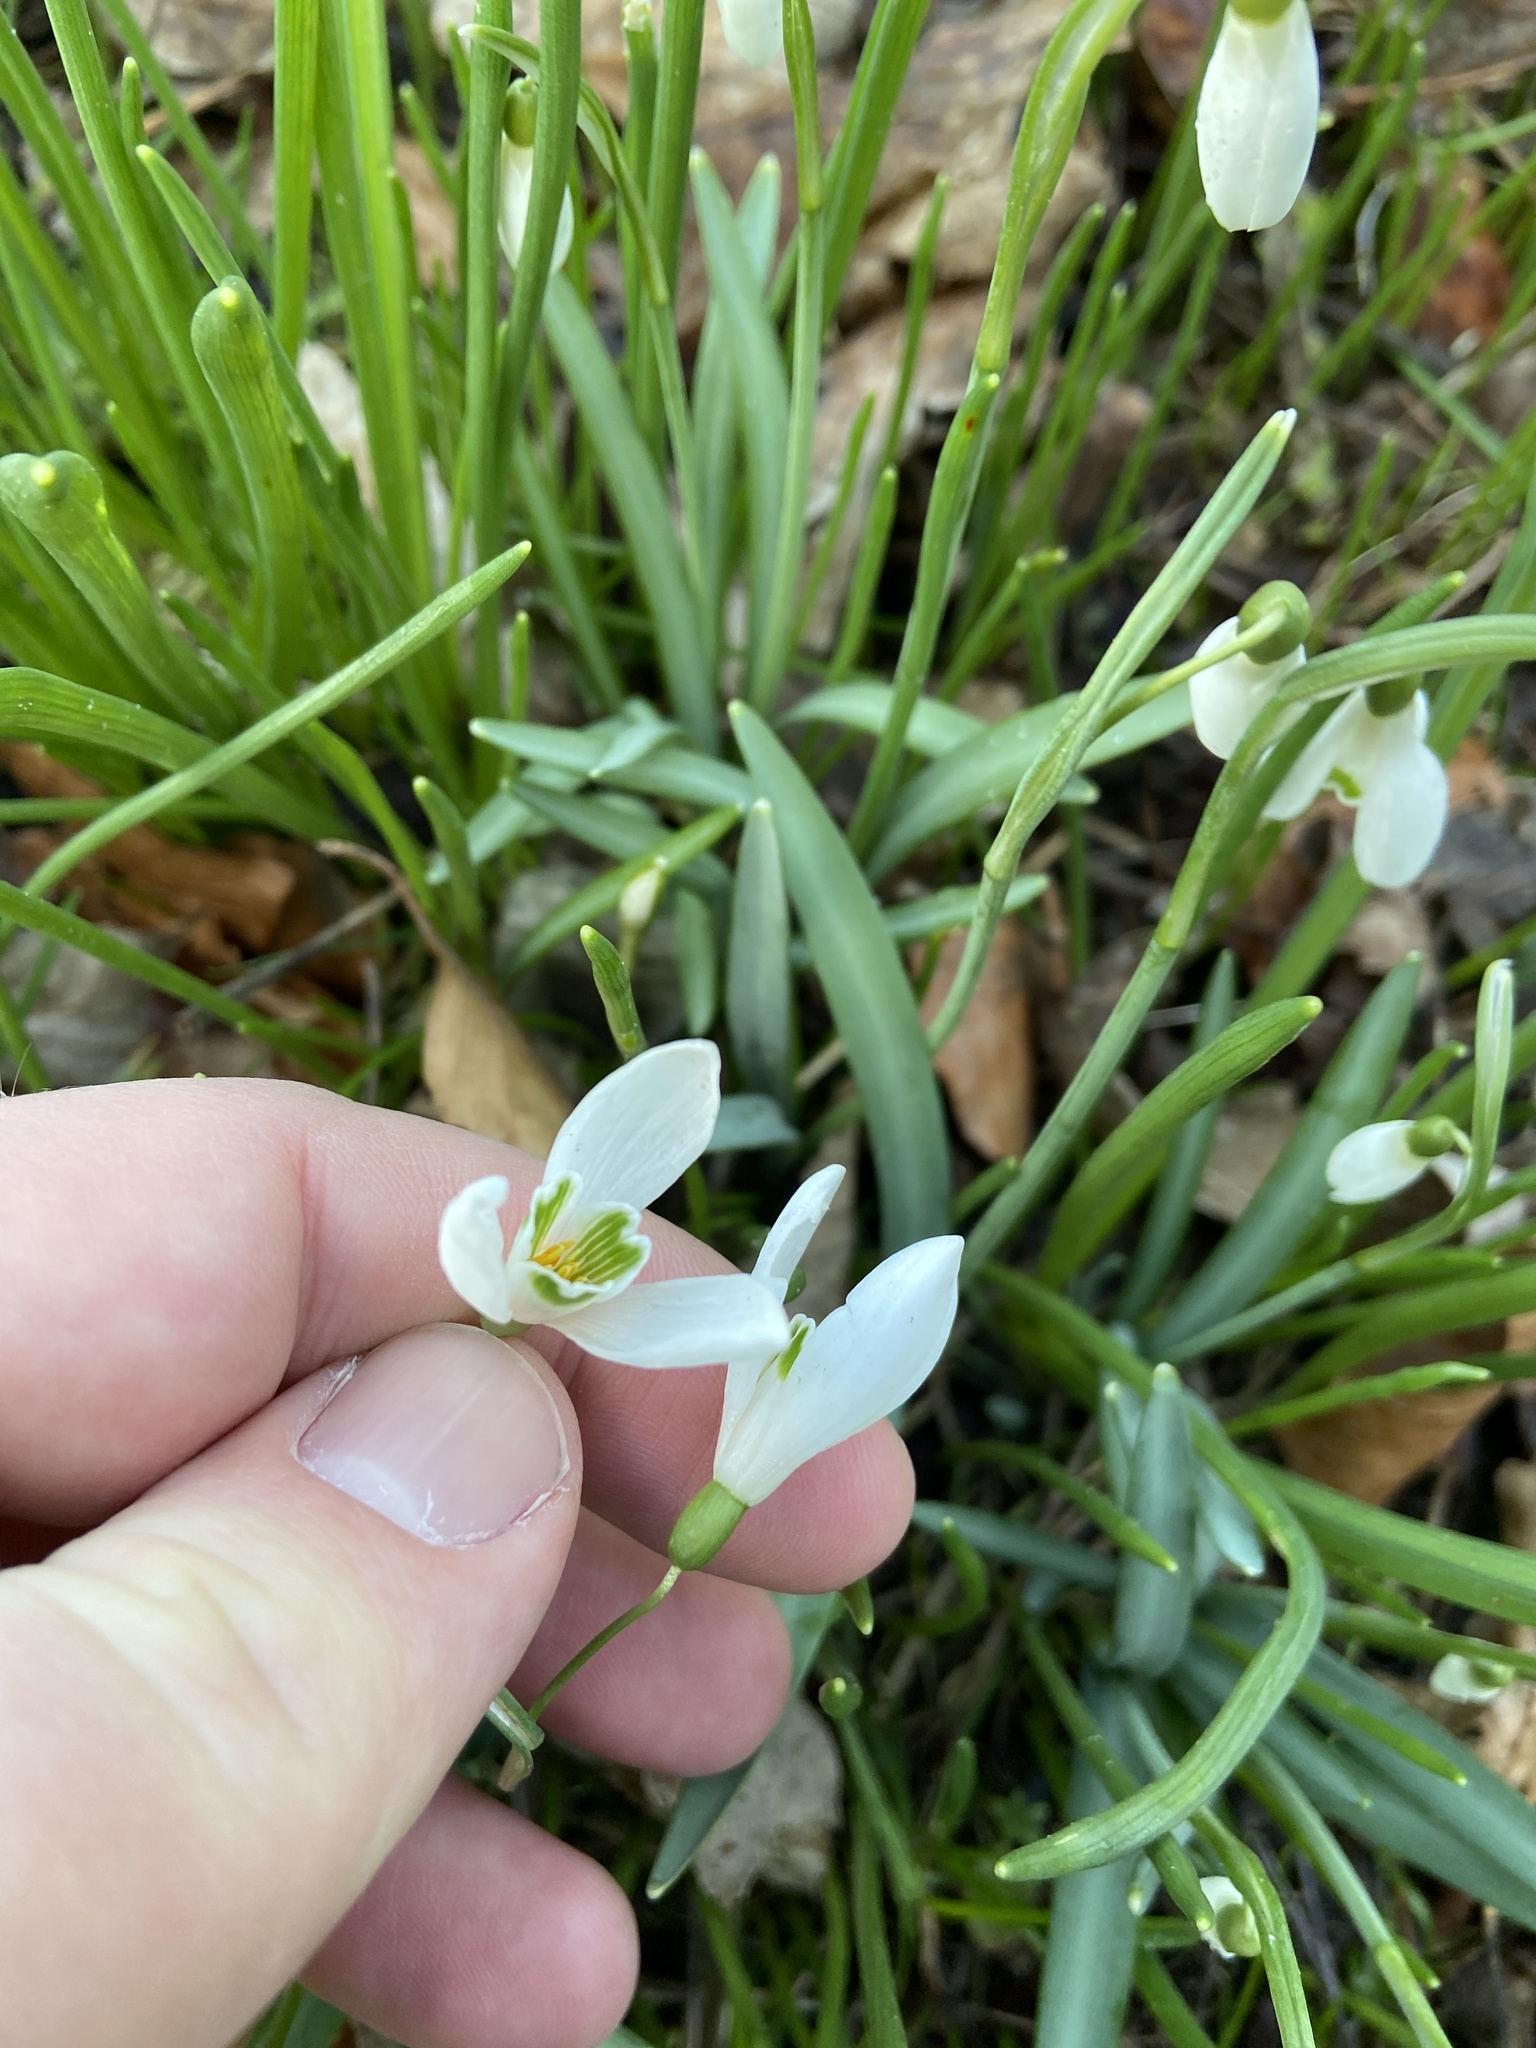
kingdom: Plantae
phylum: Tracheophyta
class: Liliopsida
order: Asparagales
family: Amaryllidaceae
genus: Galanthus
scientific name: Galanthus nivalis
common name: Snowdrop
